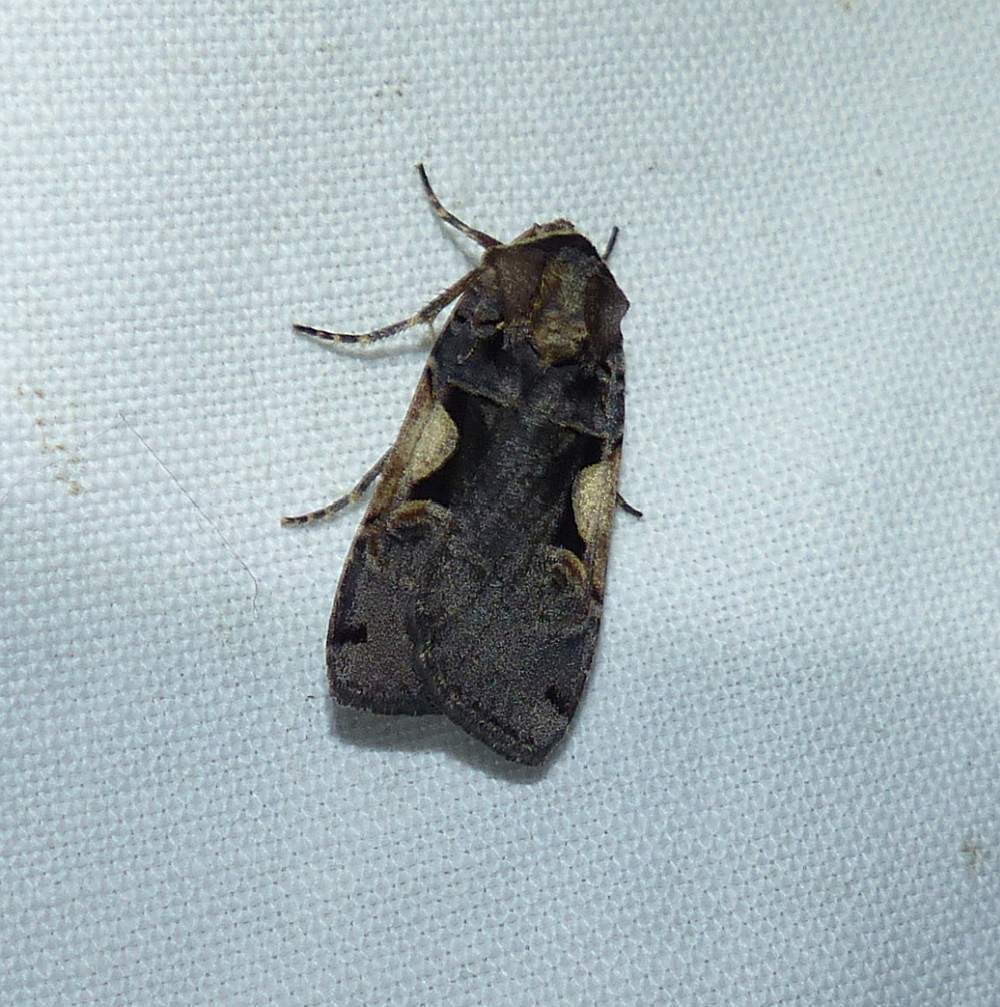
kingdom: Animalia
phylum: Arthropoda
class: Insecta
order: Lepidoptera
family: Noctuidae
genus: Xestia
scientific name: Xestia
